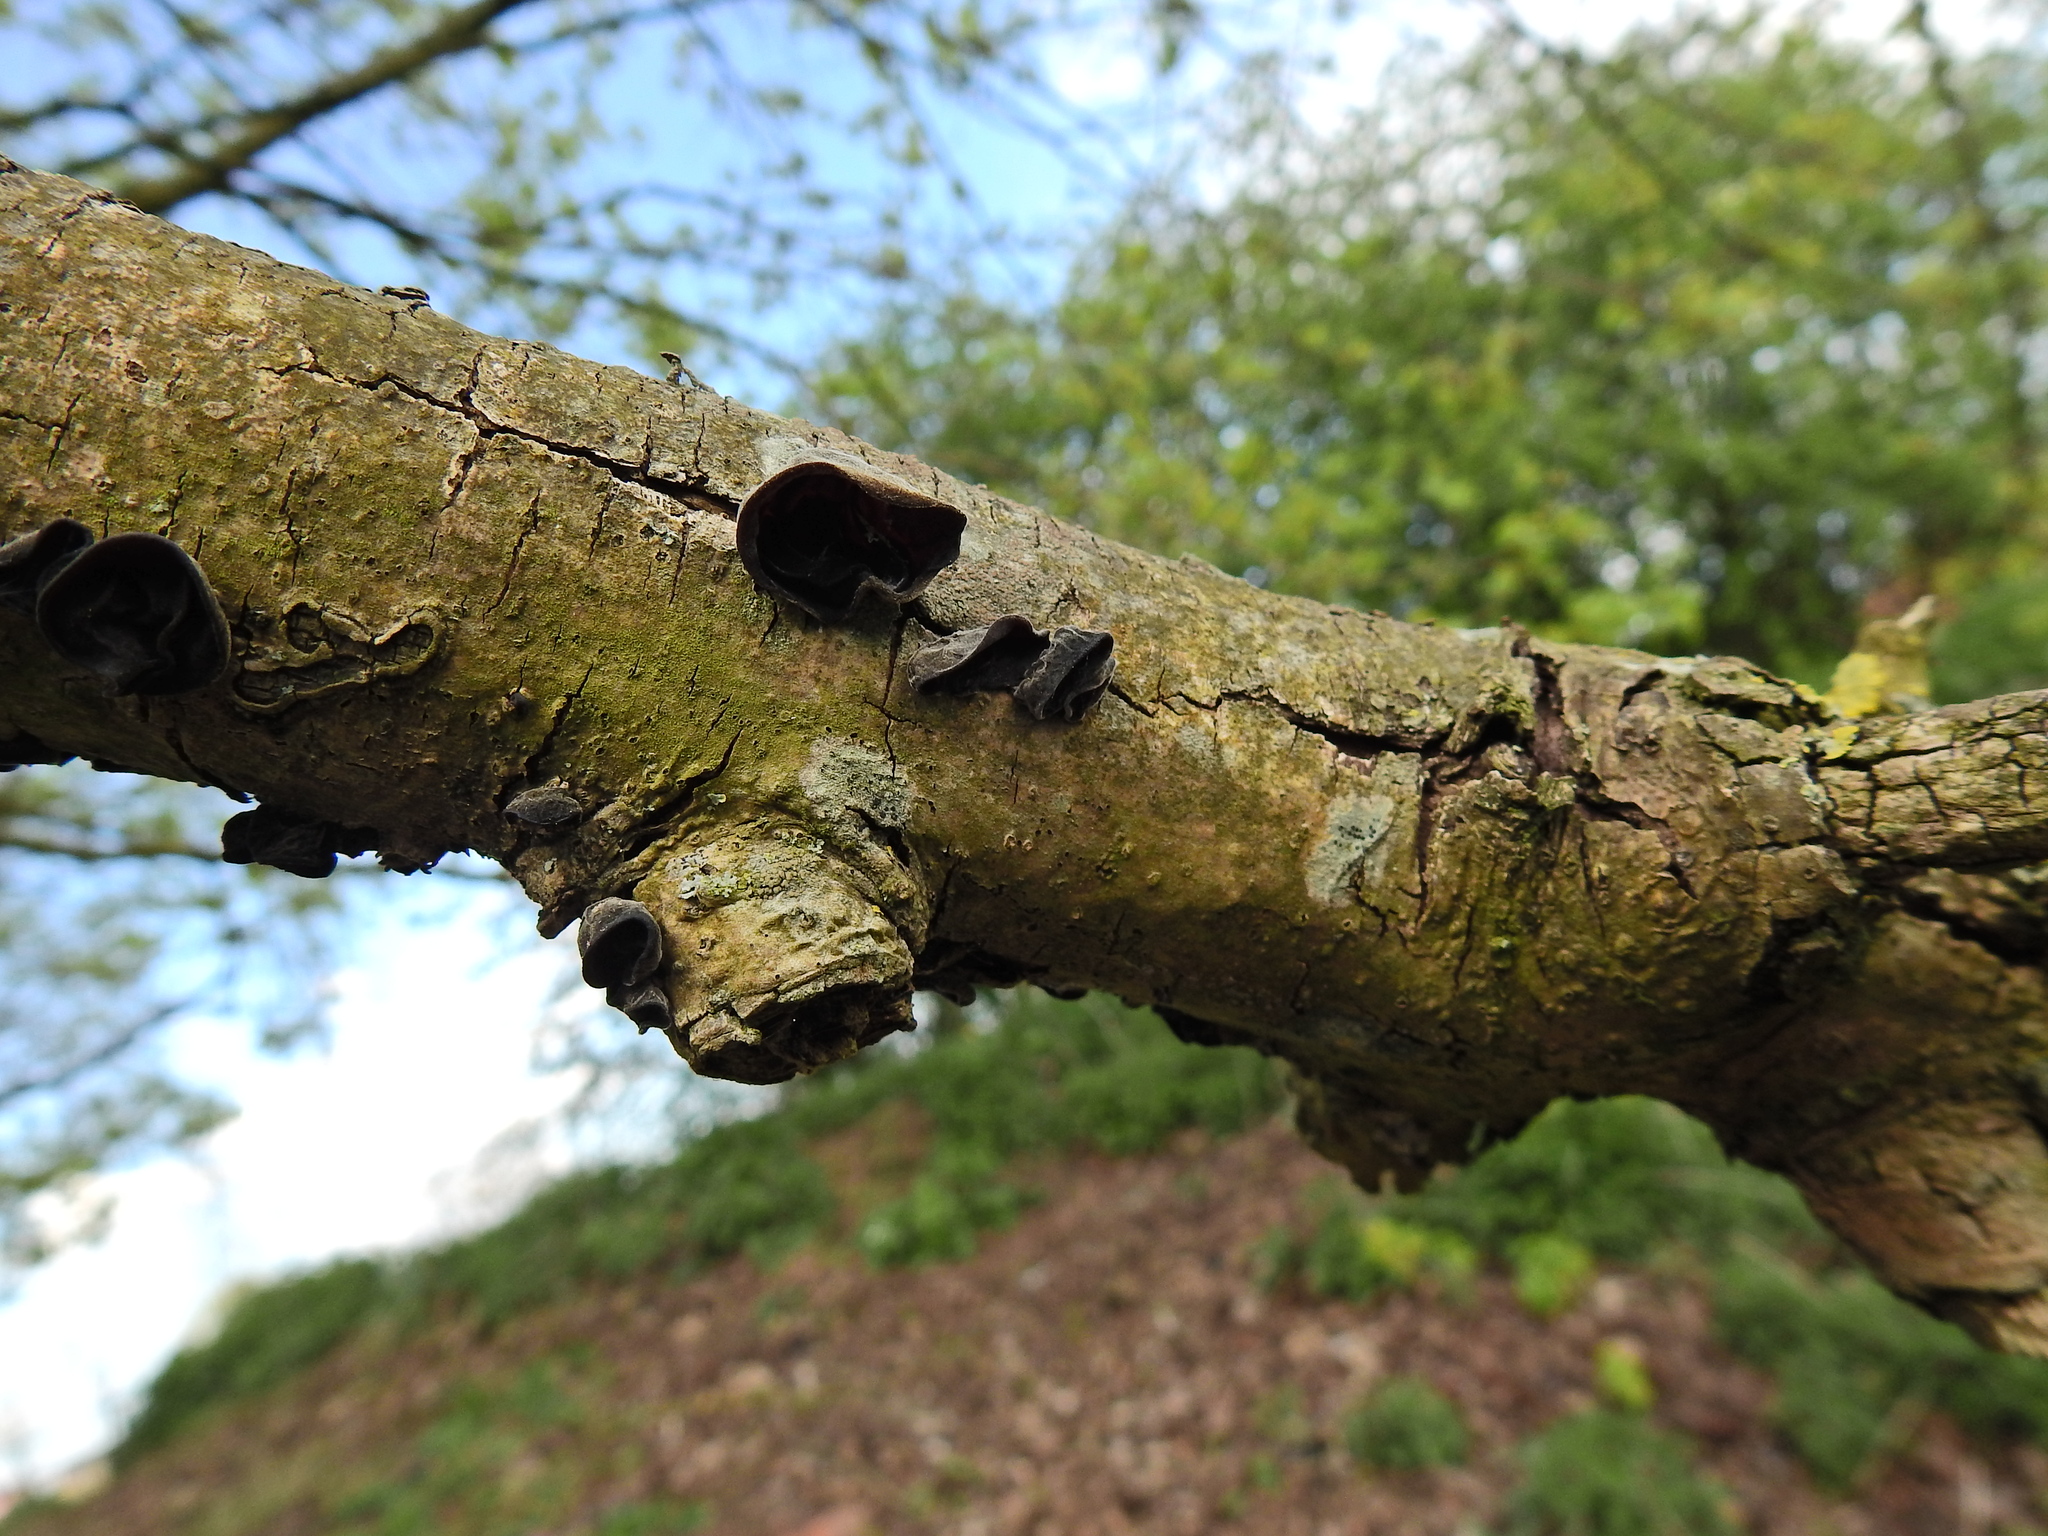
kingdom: Fungi
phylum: Basidiomycota
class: Agaricomycetes
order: Auriculariales
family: Auriculariaceae
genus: Auricularia
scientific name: Auricularia auricula-judae
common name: Jelly ear
